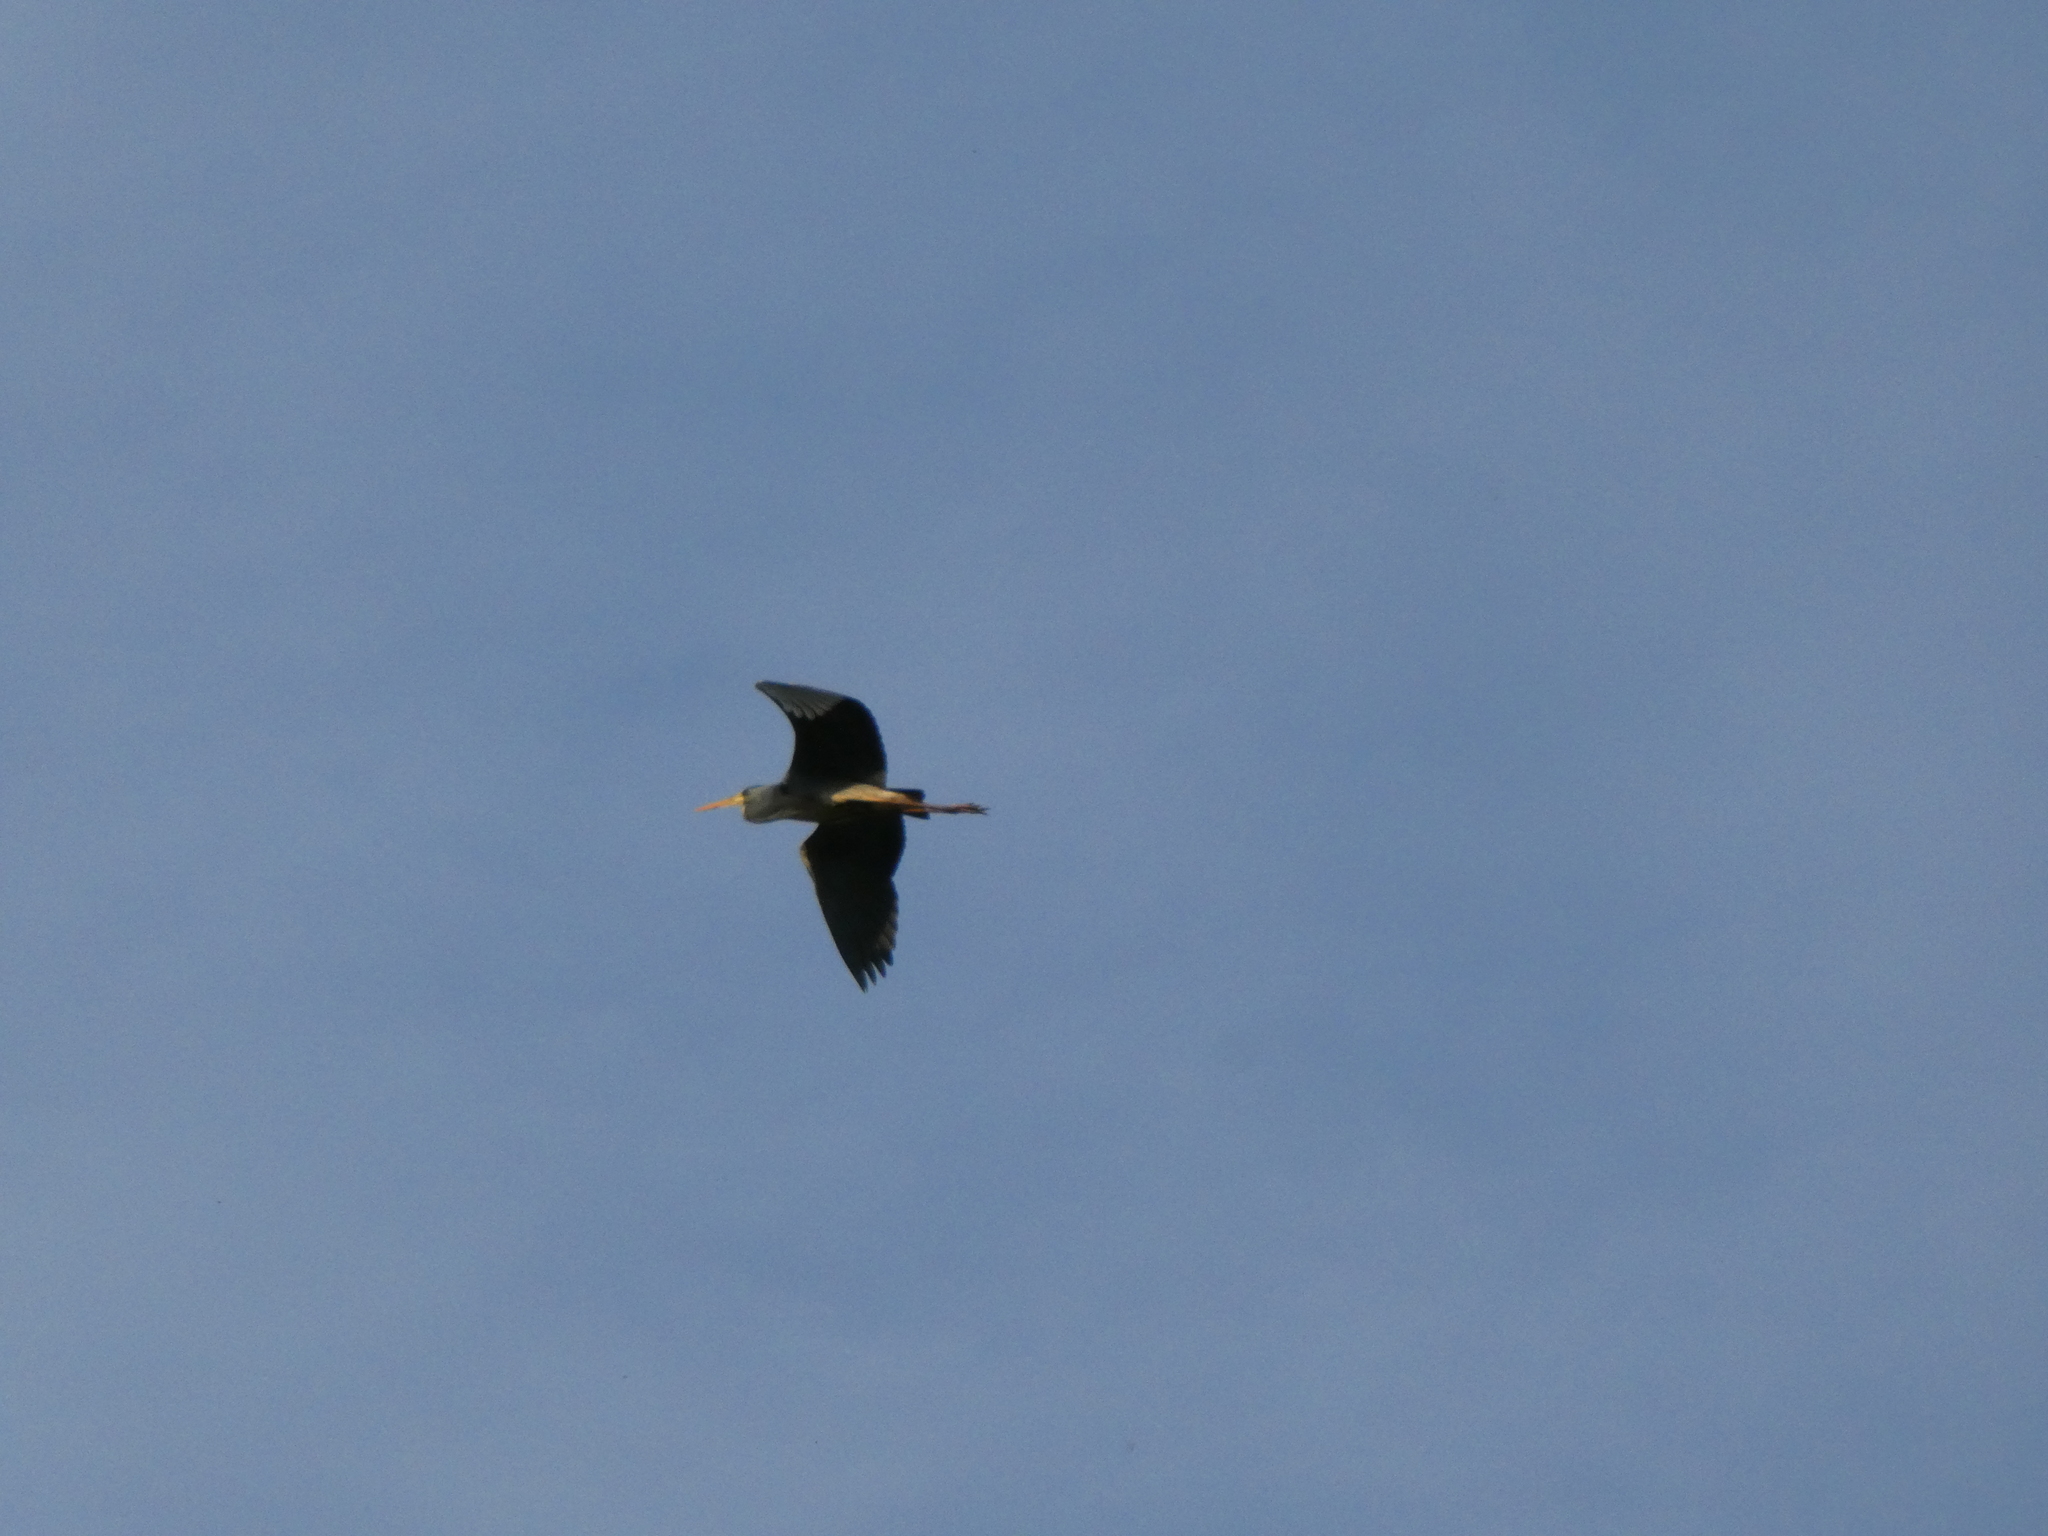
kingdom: Animalia
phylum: Chordata
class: Aves
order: Pelecaniformes
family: Ardeidae
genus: Ardea
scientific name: Ardea cinerea
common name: Grey heron
